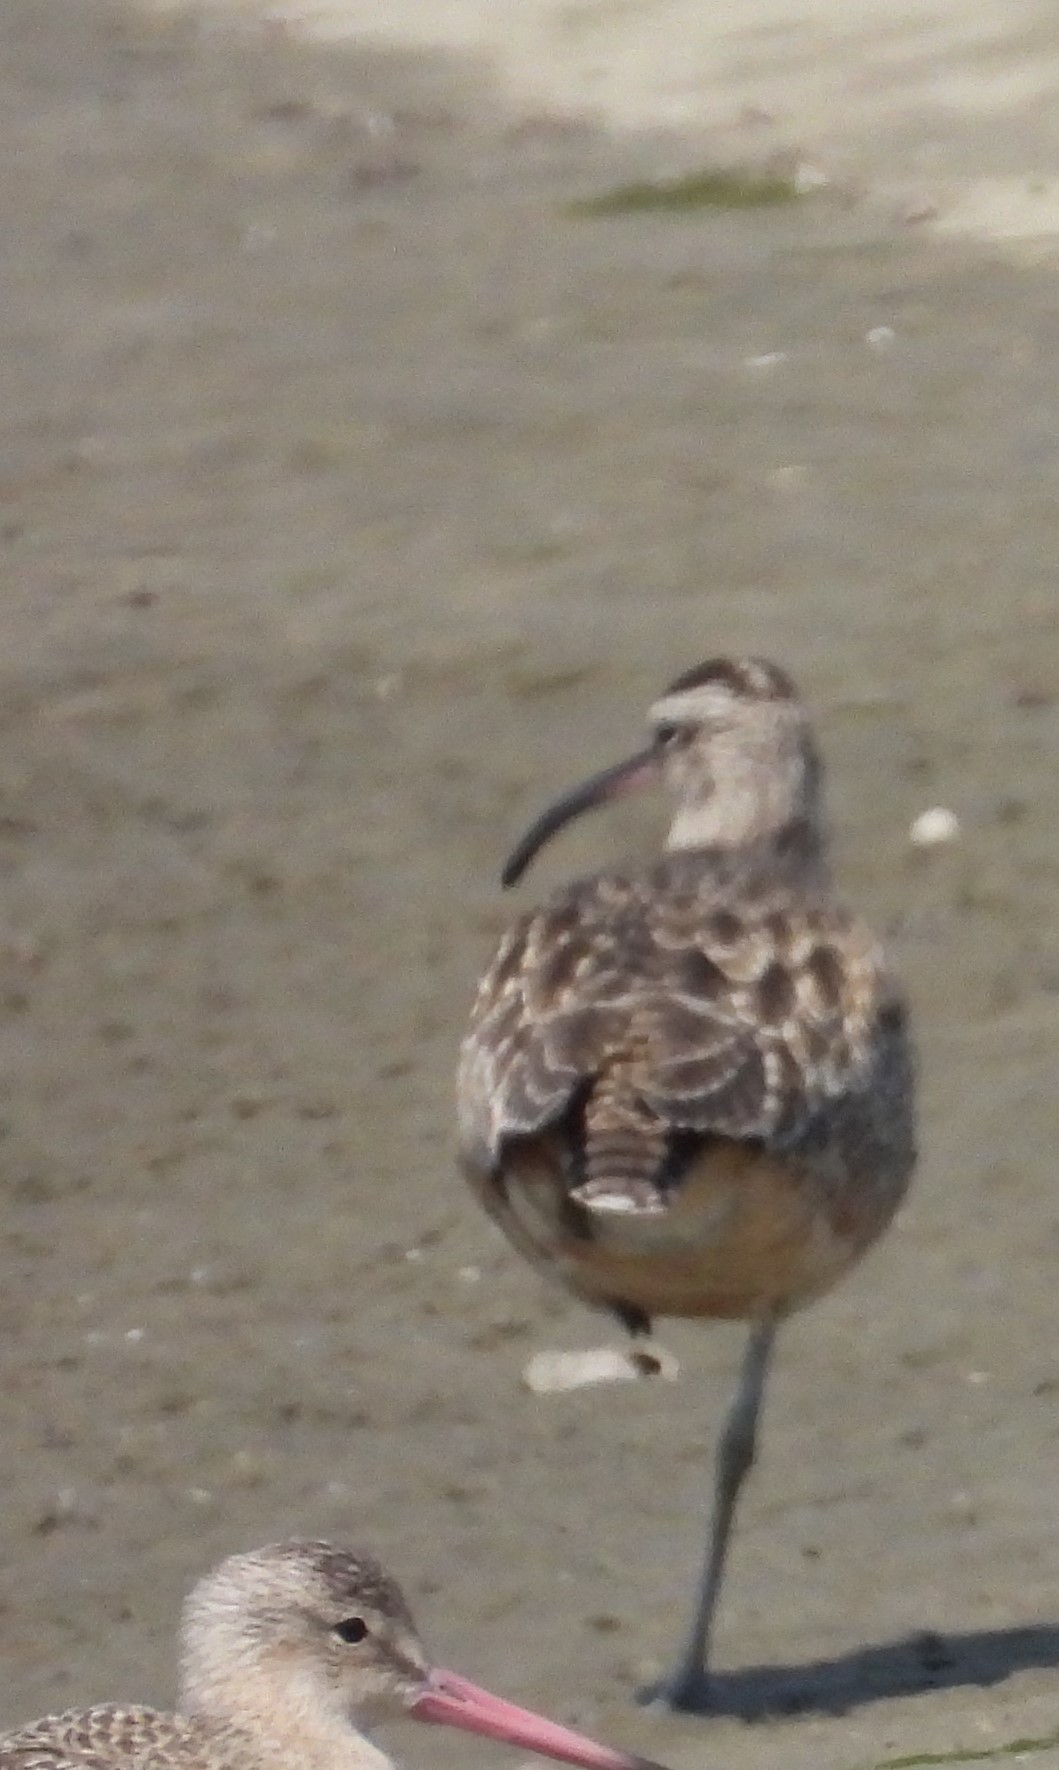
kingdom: Animalia
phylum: Chordata
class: Aves
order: Charadriiformes
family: Scolopacidae
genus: Numenius
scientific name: Numenius phaeopus
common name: Whimbrel
